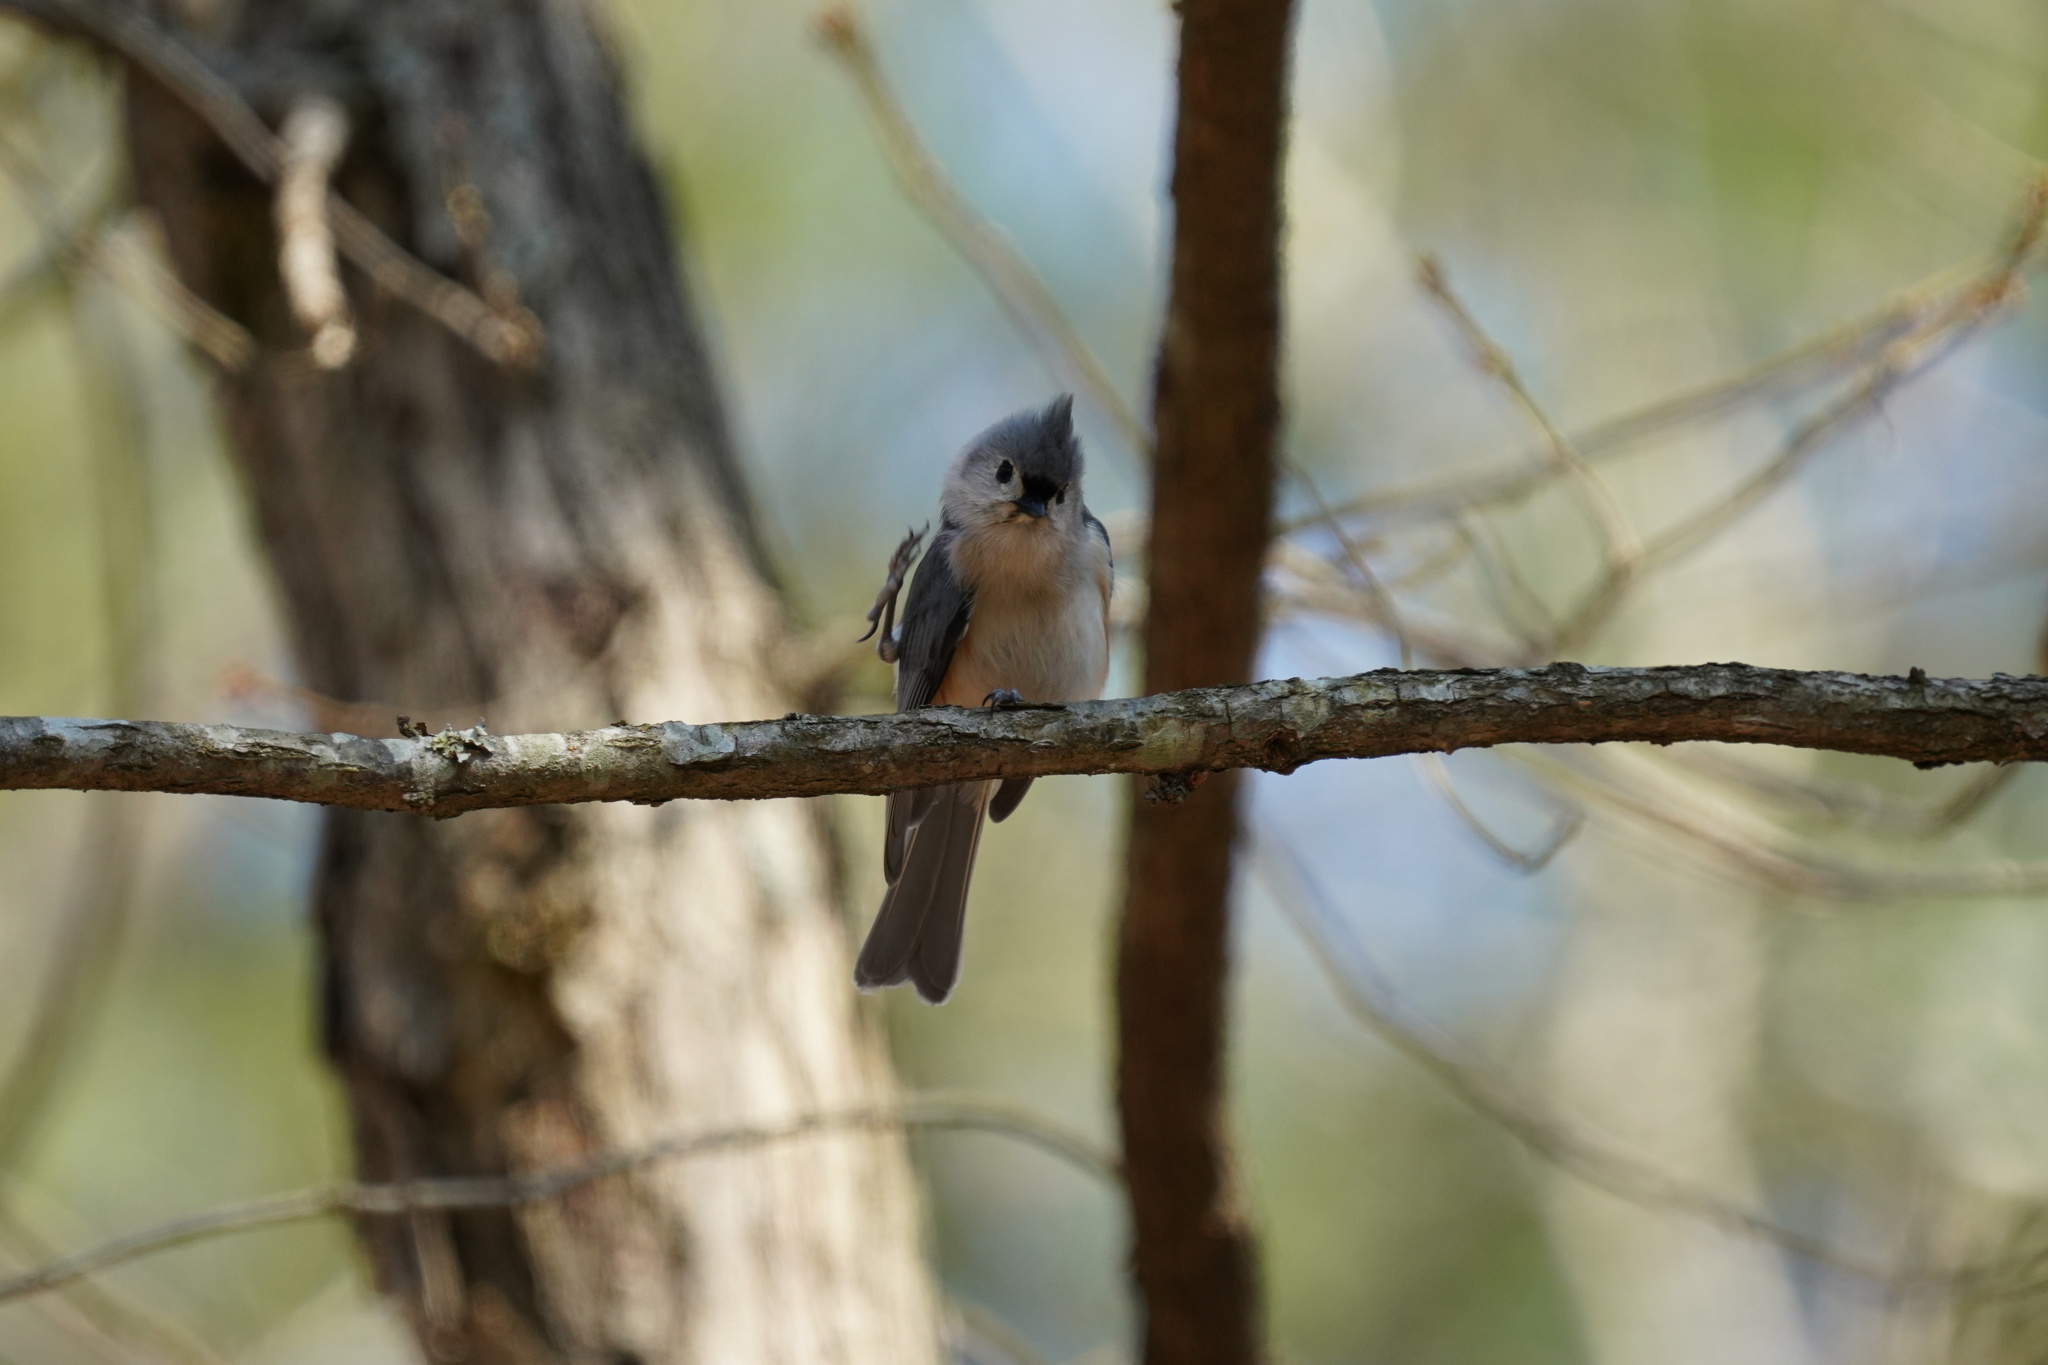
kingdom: Animalia
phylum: Chordata
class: Aves
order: Passeriformes
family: Paridae
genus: Baeolophus
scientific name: Baeolophus bicolor
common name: Tufted titmouse
